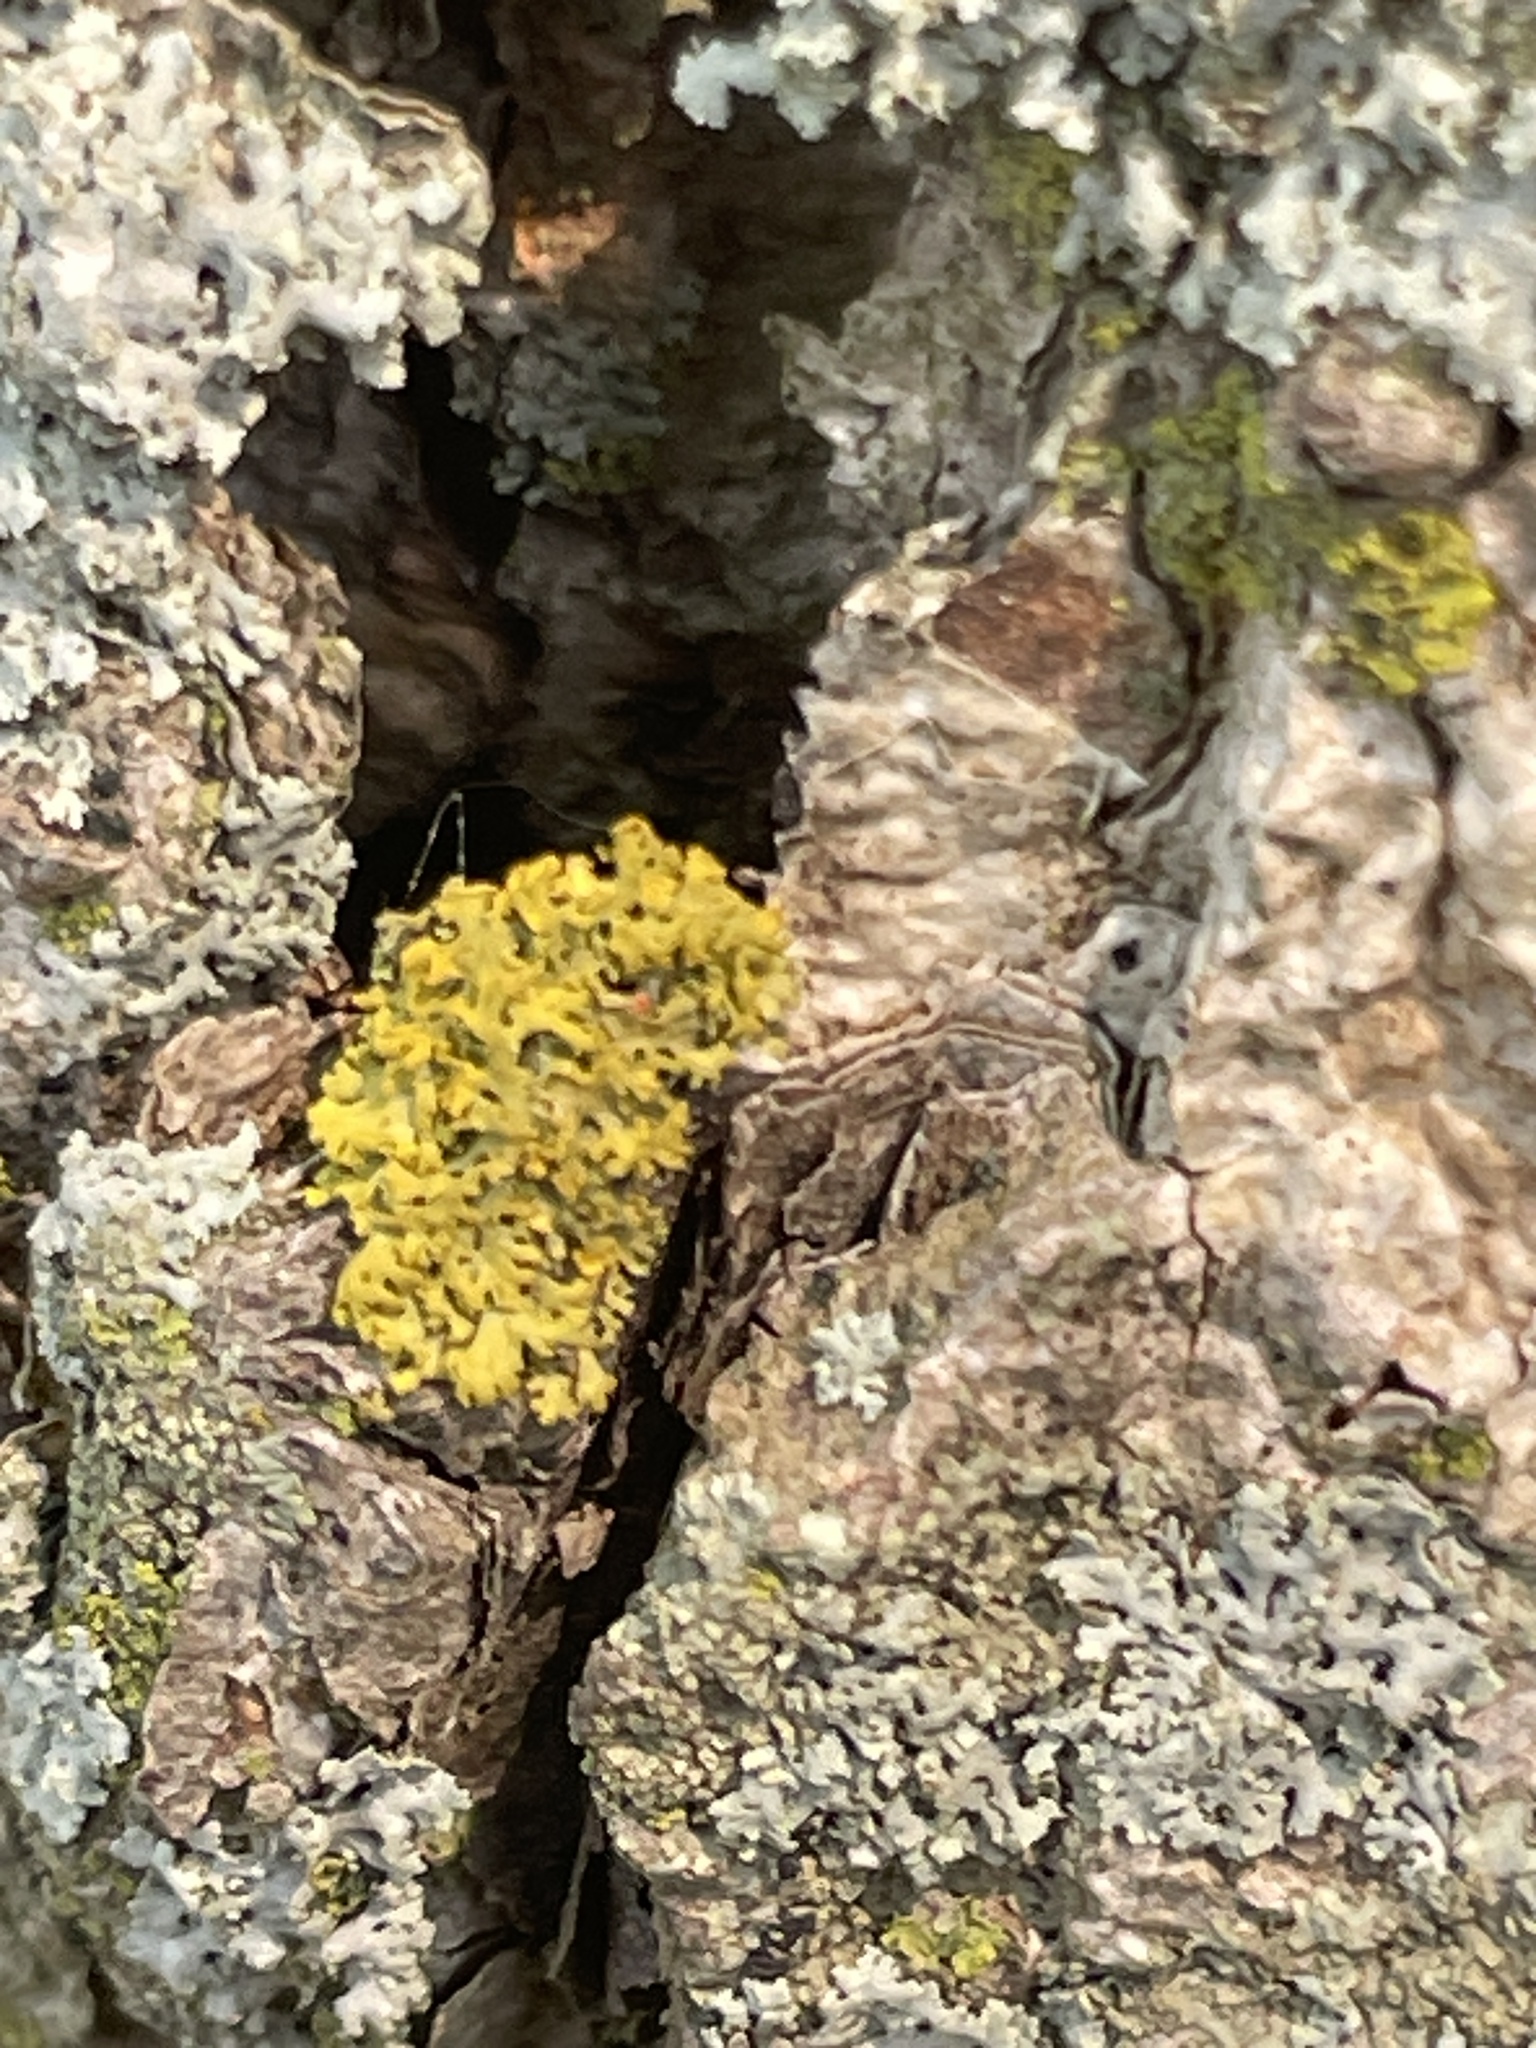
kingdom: Fungi
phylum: Ascomycota
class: Candelariomycetes
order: Candelariales
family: Candelariaceae
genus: Candelaria
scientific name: Candelaria concolor
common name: Candleflame lichen
